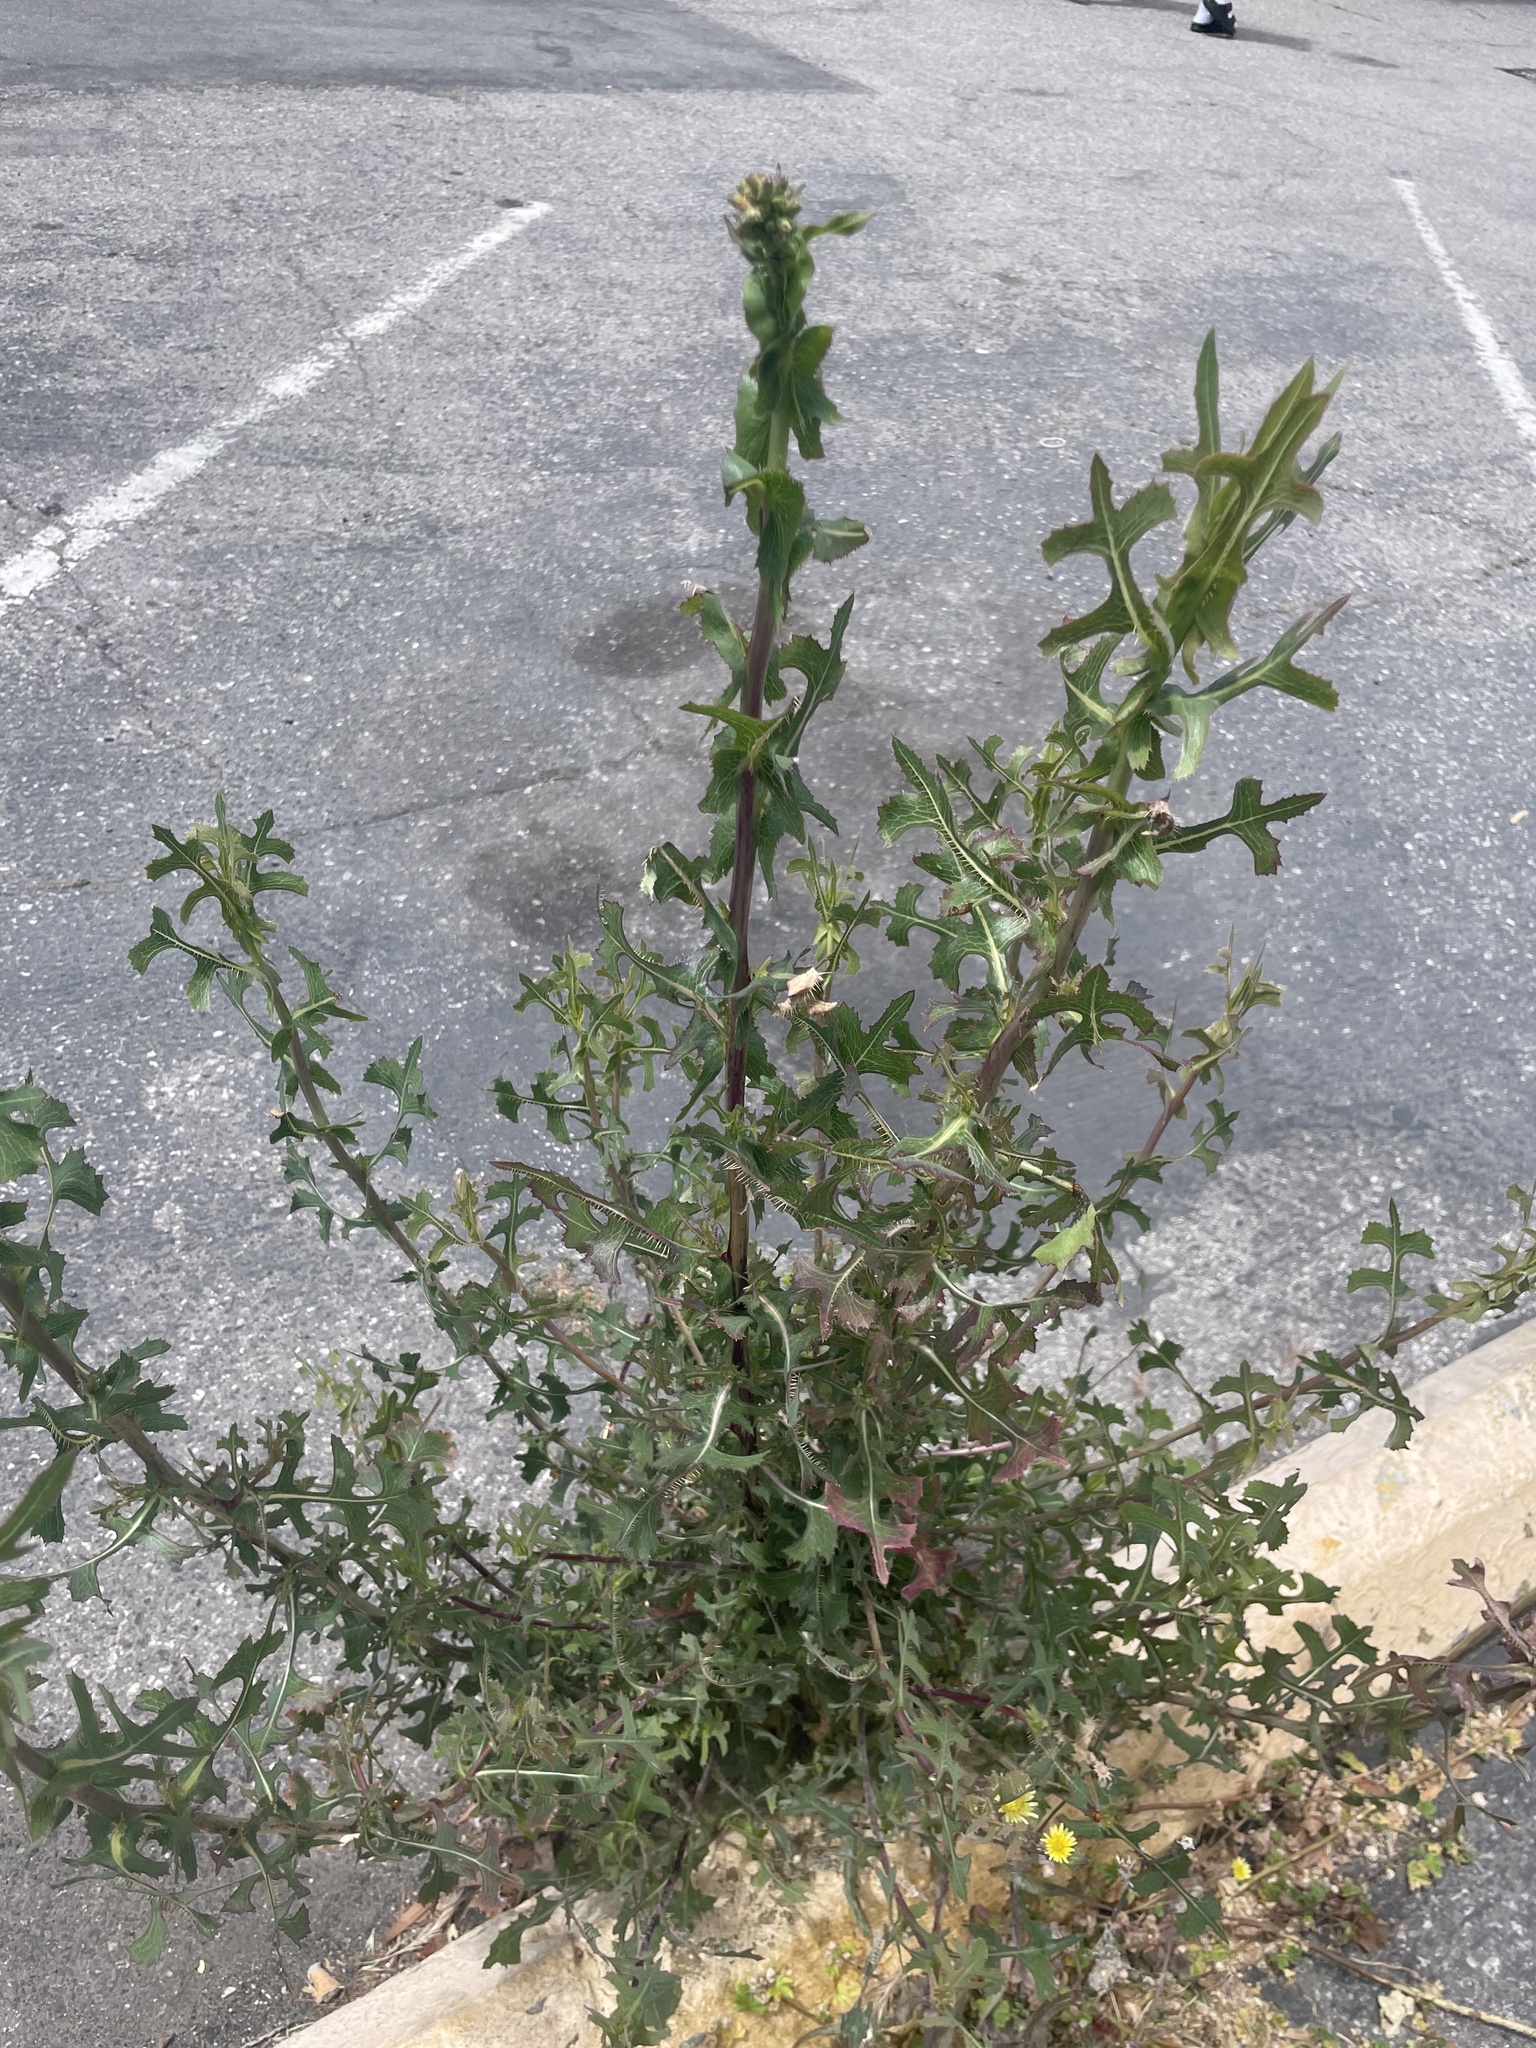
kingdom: Plantae
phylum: Tracheophyta
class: Magnoliopsida
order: Asterales
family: Asteraceae
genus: Lactuca
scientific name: Lactuca serriola
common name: Prickly lettuce
